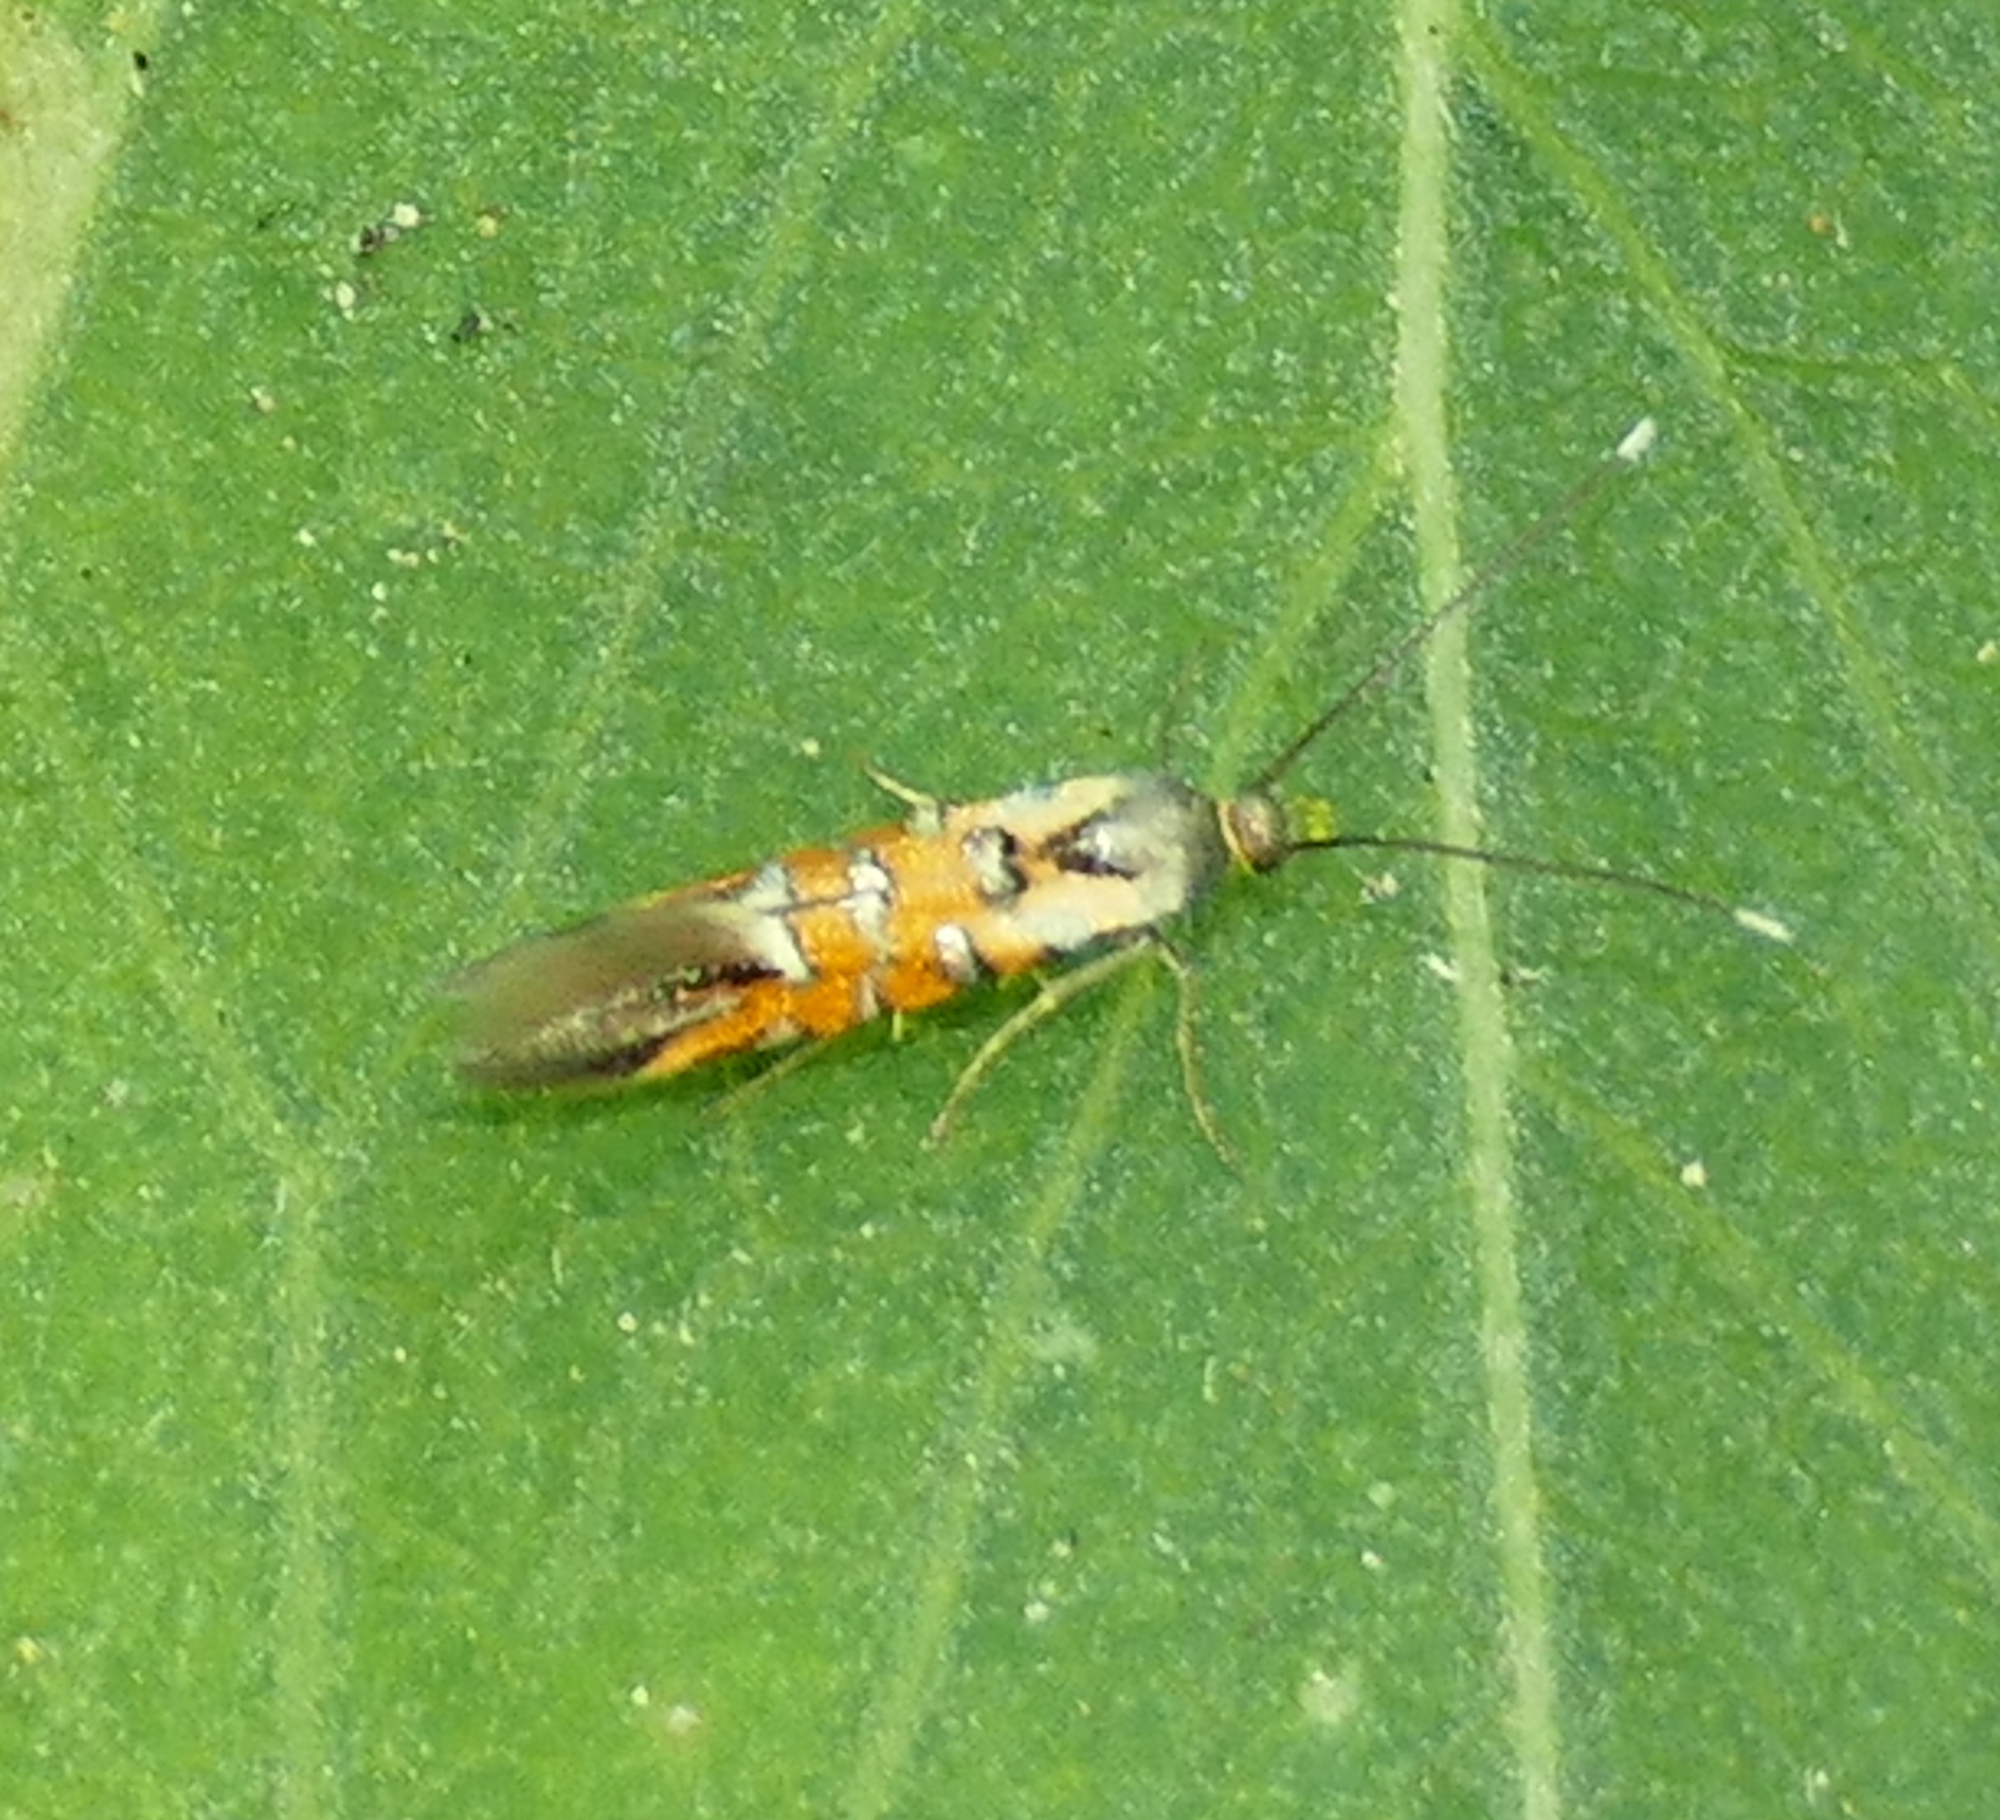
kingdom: Animalia
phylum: Arthropoda
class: Insecta
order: Lepidoptera
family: Heliodinidae
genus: Neoheliodines
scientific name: Neoheliodines
